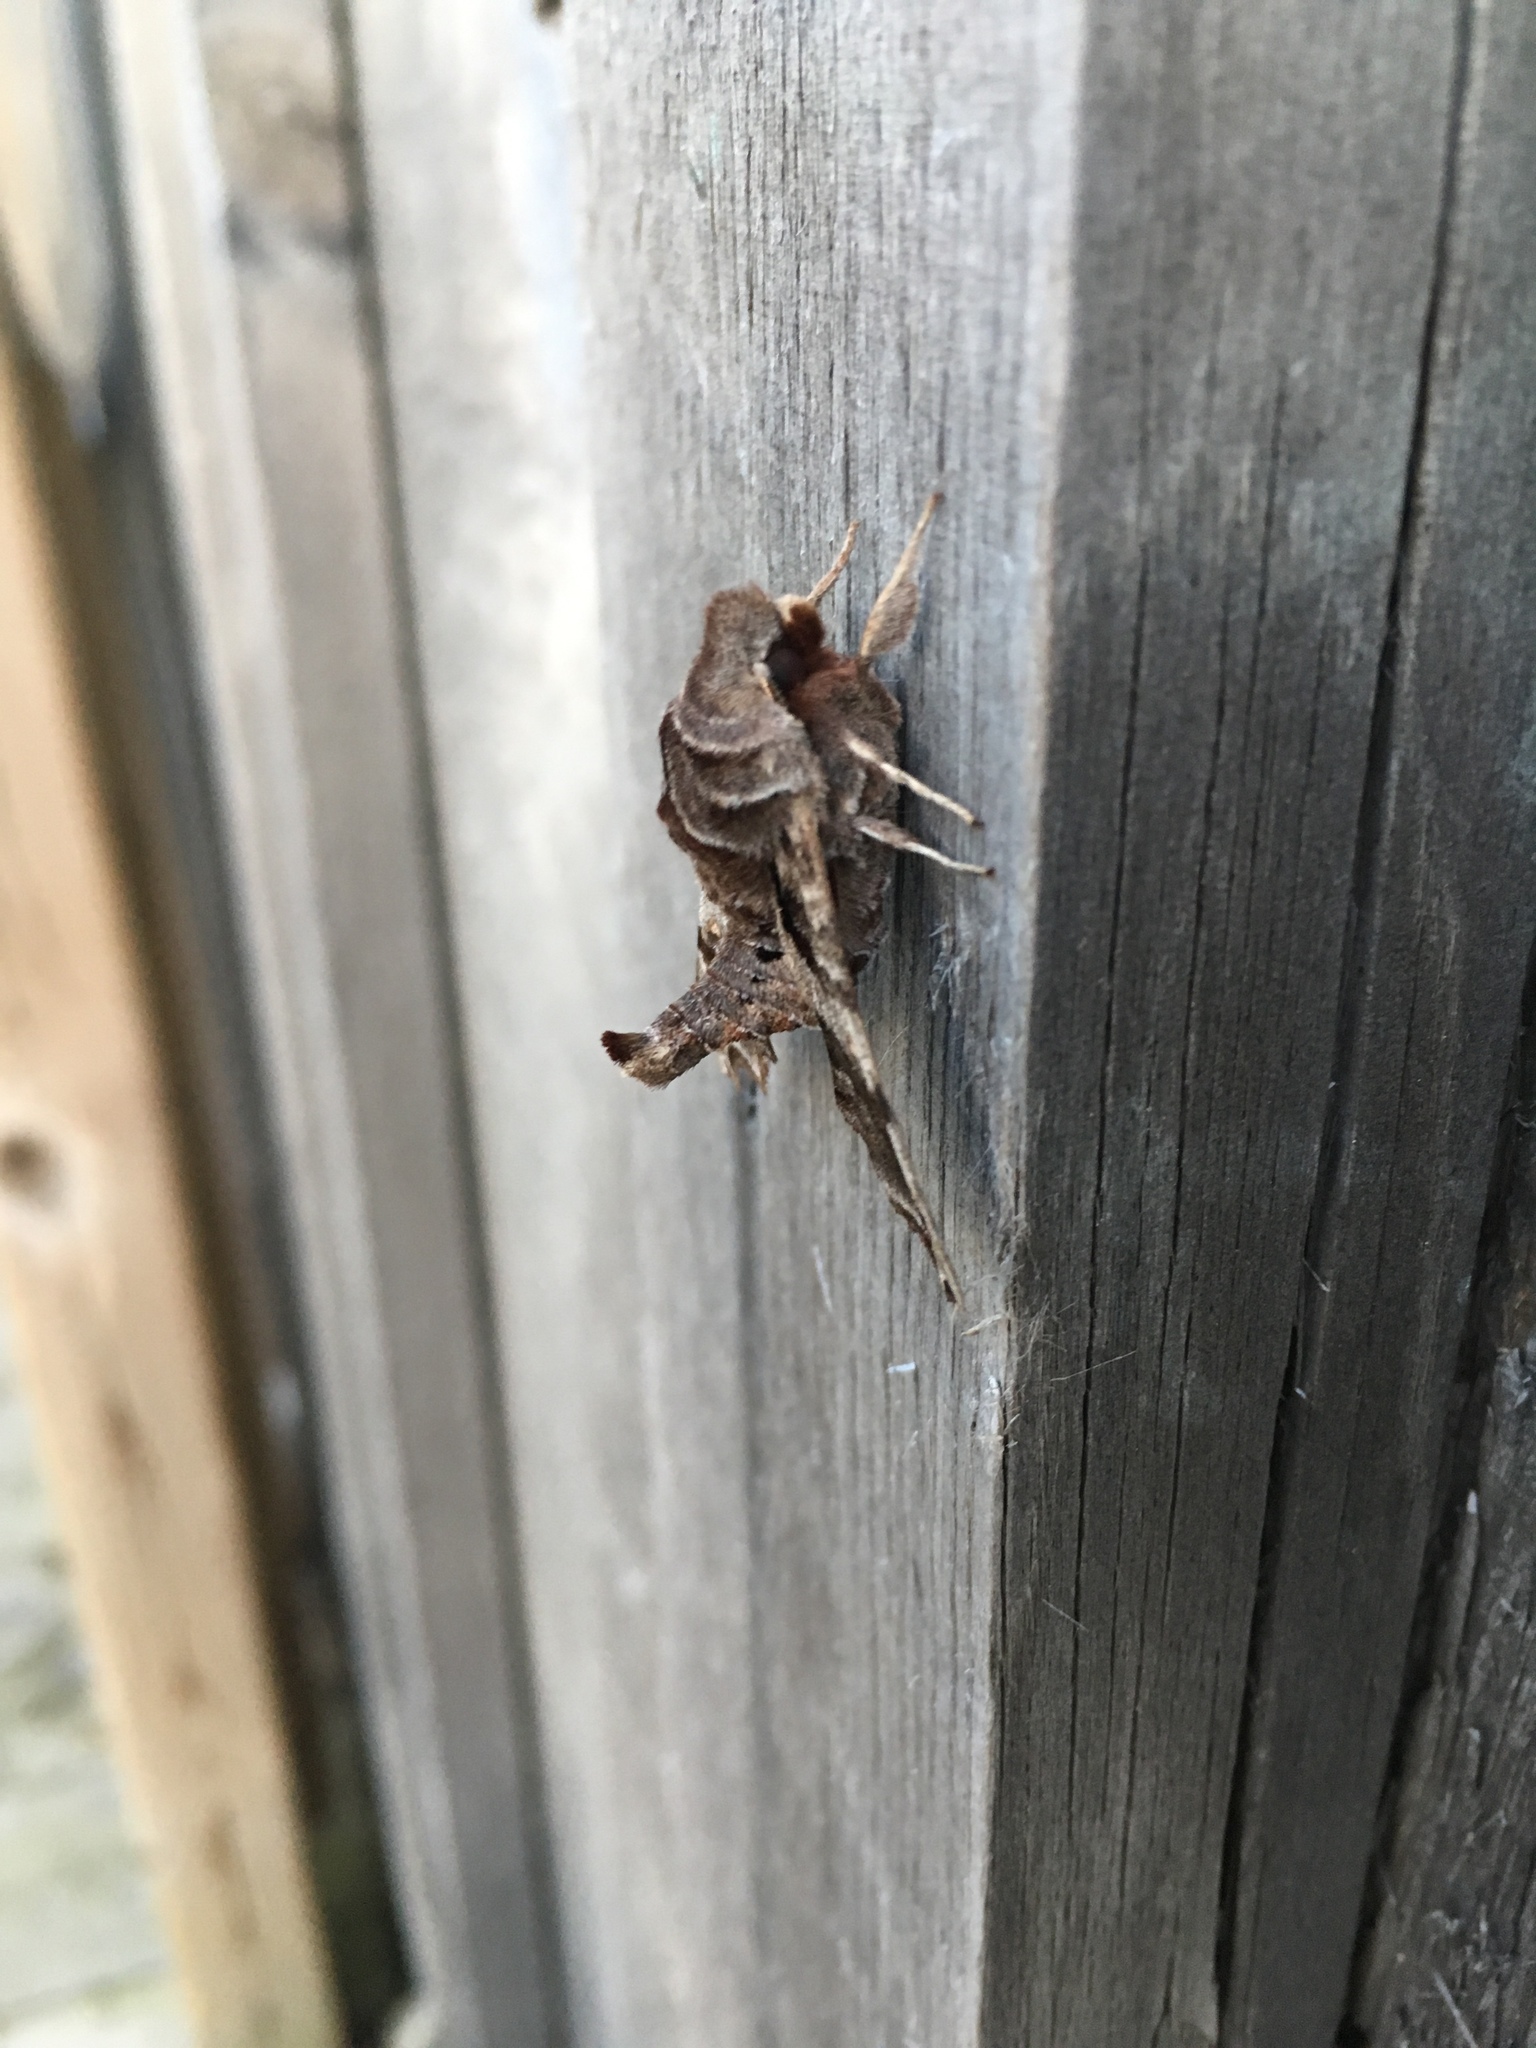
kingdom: Animalia
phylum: Arthropoda
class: Insecta
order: Lepidoptera
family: Sphingidae
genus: Deidamia
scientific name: Deidamia inscriptum
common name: Lettered sphinx
